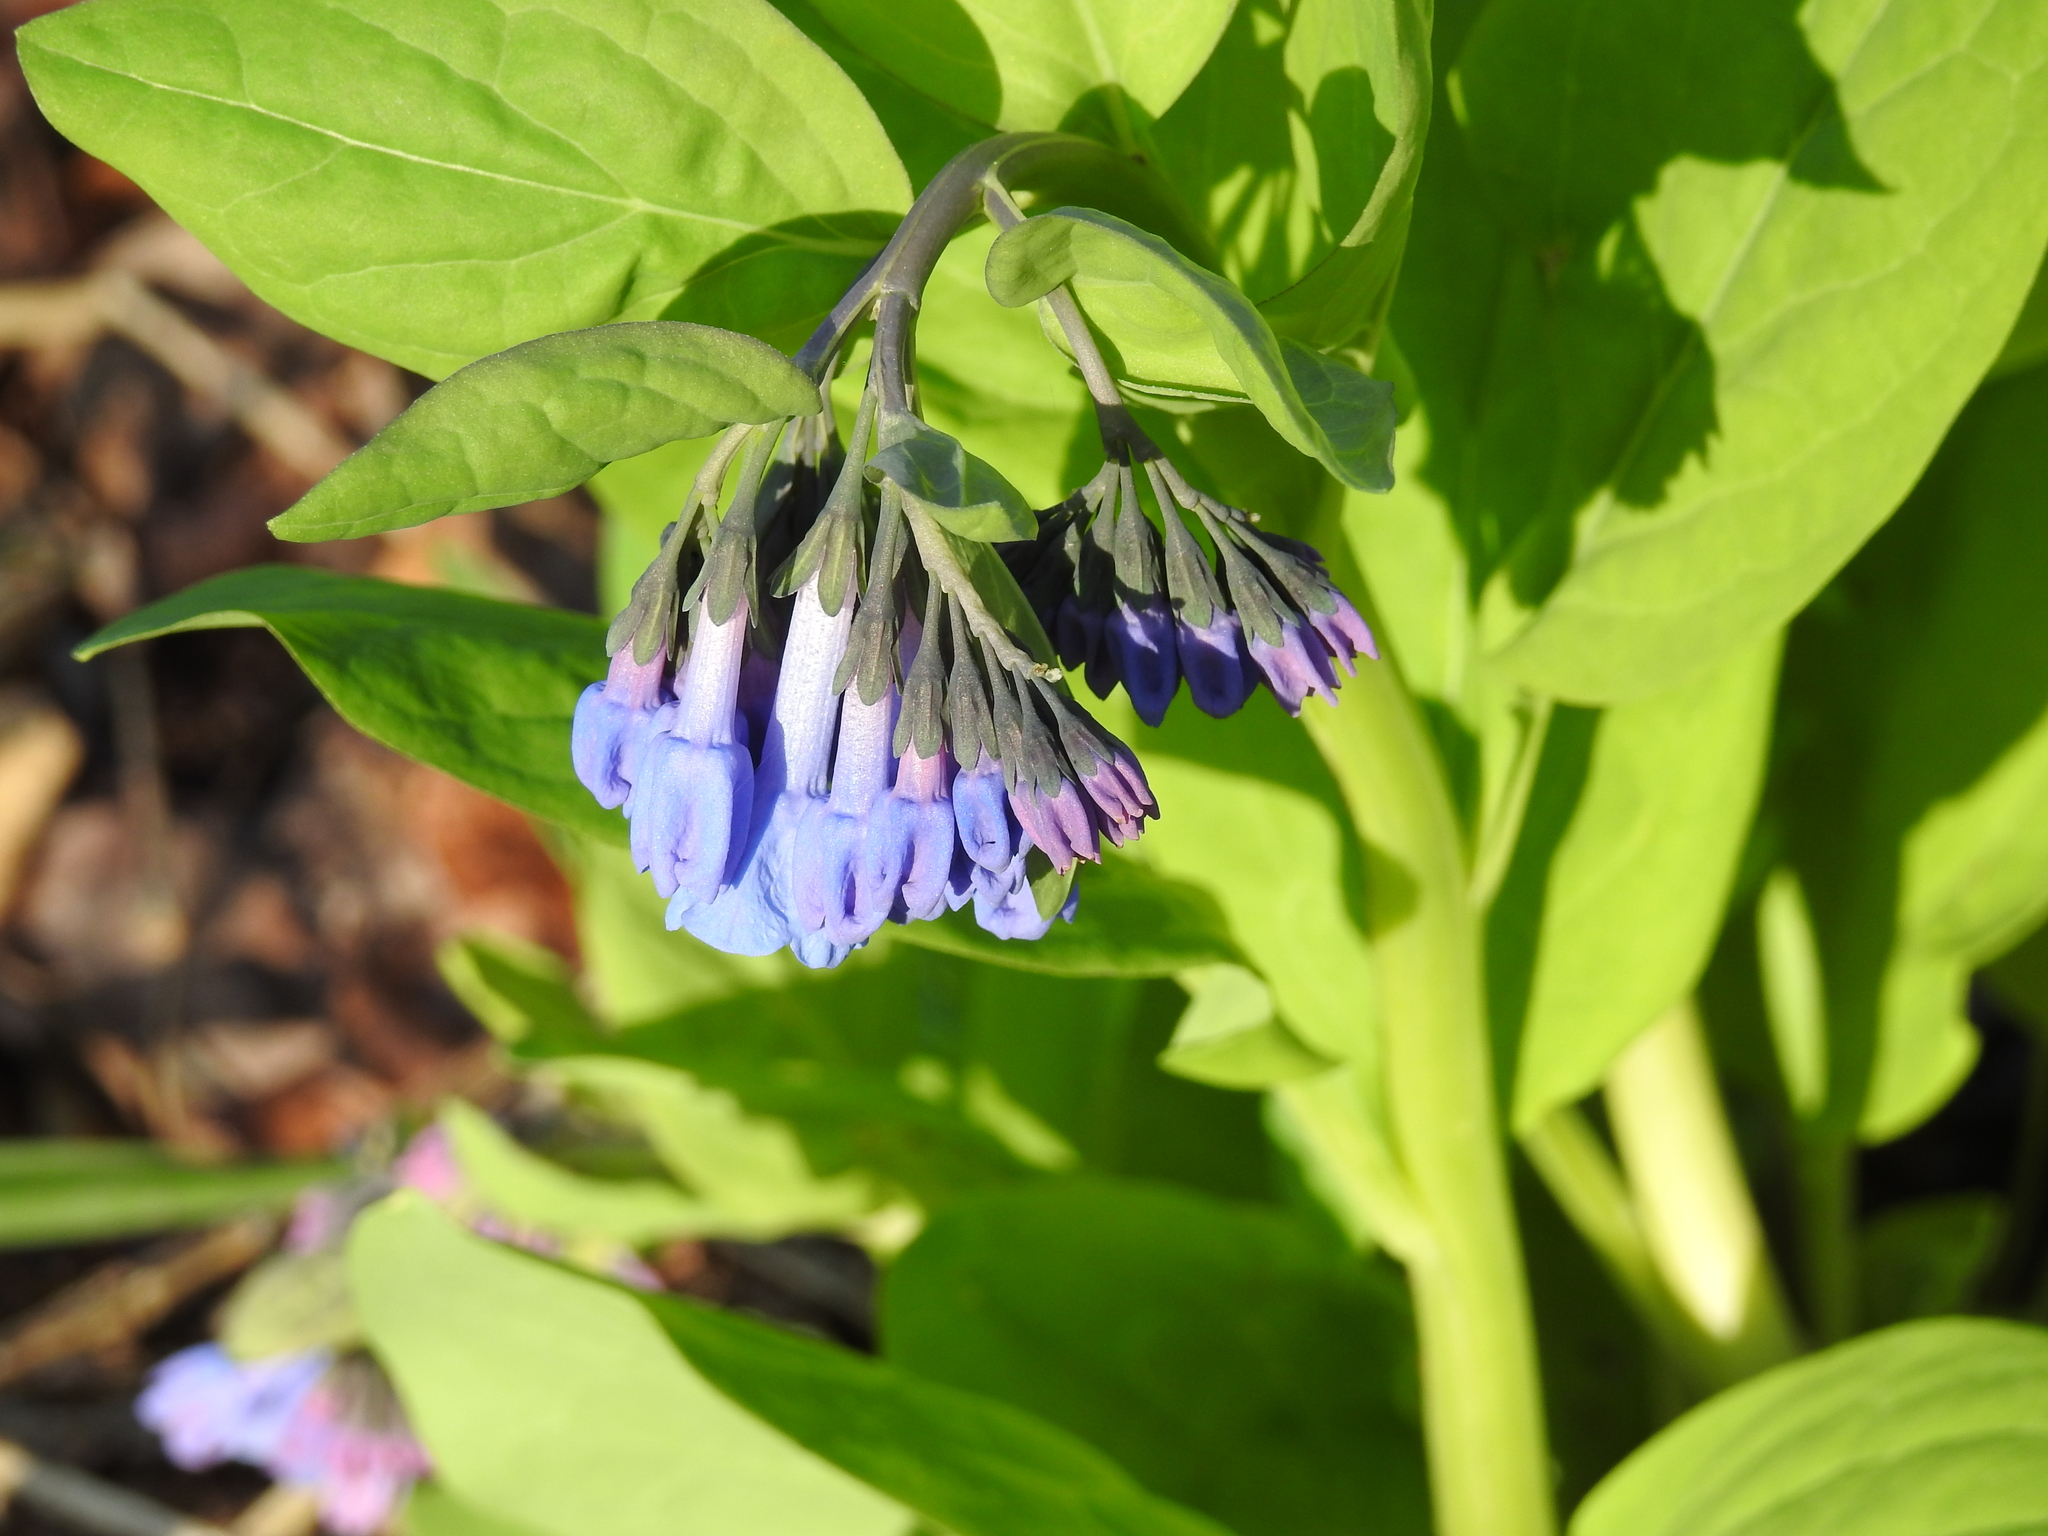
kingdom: Plantae
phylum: Tracheophyta
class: Magnoliopsida
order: Boraginales
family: Boraginaceae
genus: Mertensia
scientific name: Mertensia virginica
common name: Virginia bluebells
